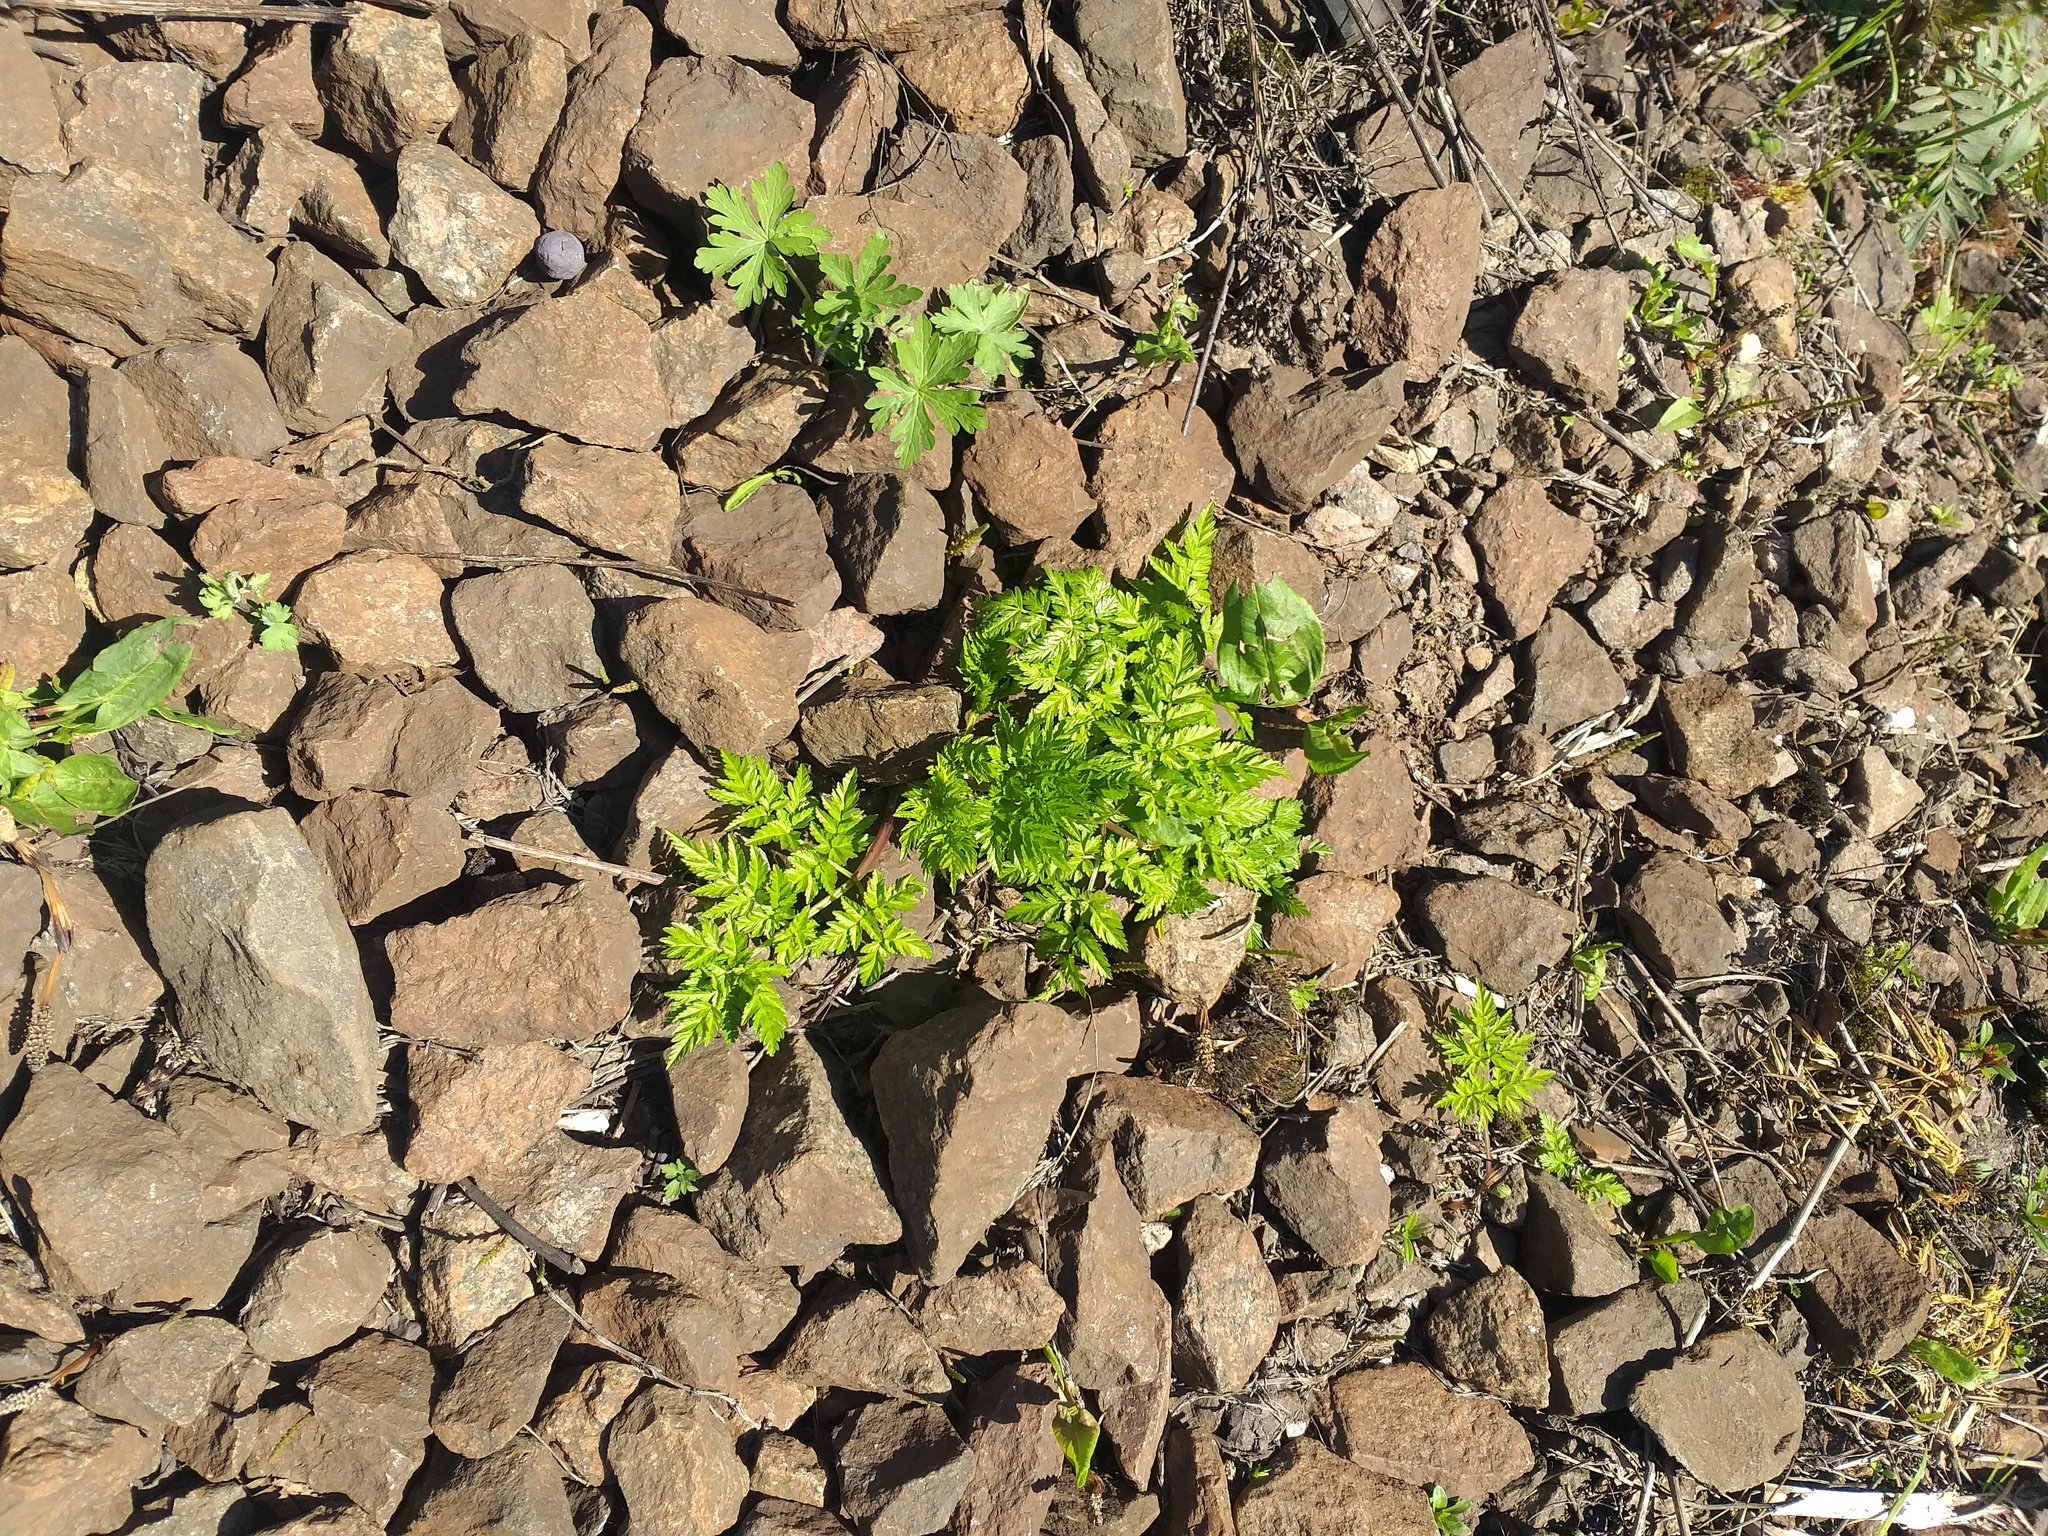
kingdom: Plantae
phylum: Tracheophyta
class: Magnoliopsida
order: Apiales
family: Apiaceae
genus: Anthriscus
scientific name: Anthriscus sylvestris
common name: Cow parsley
